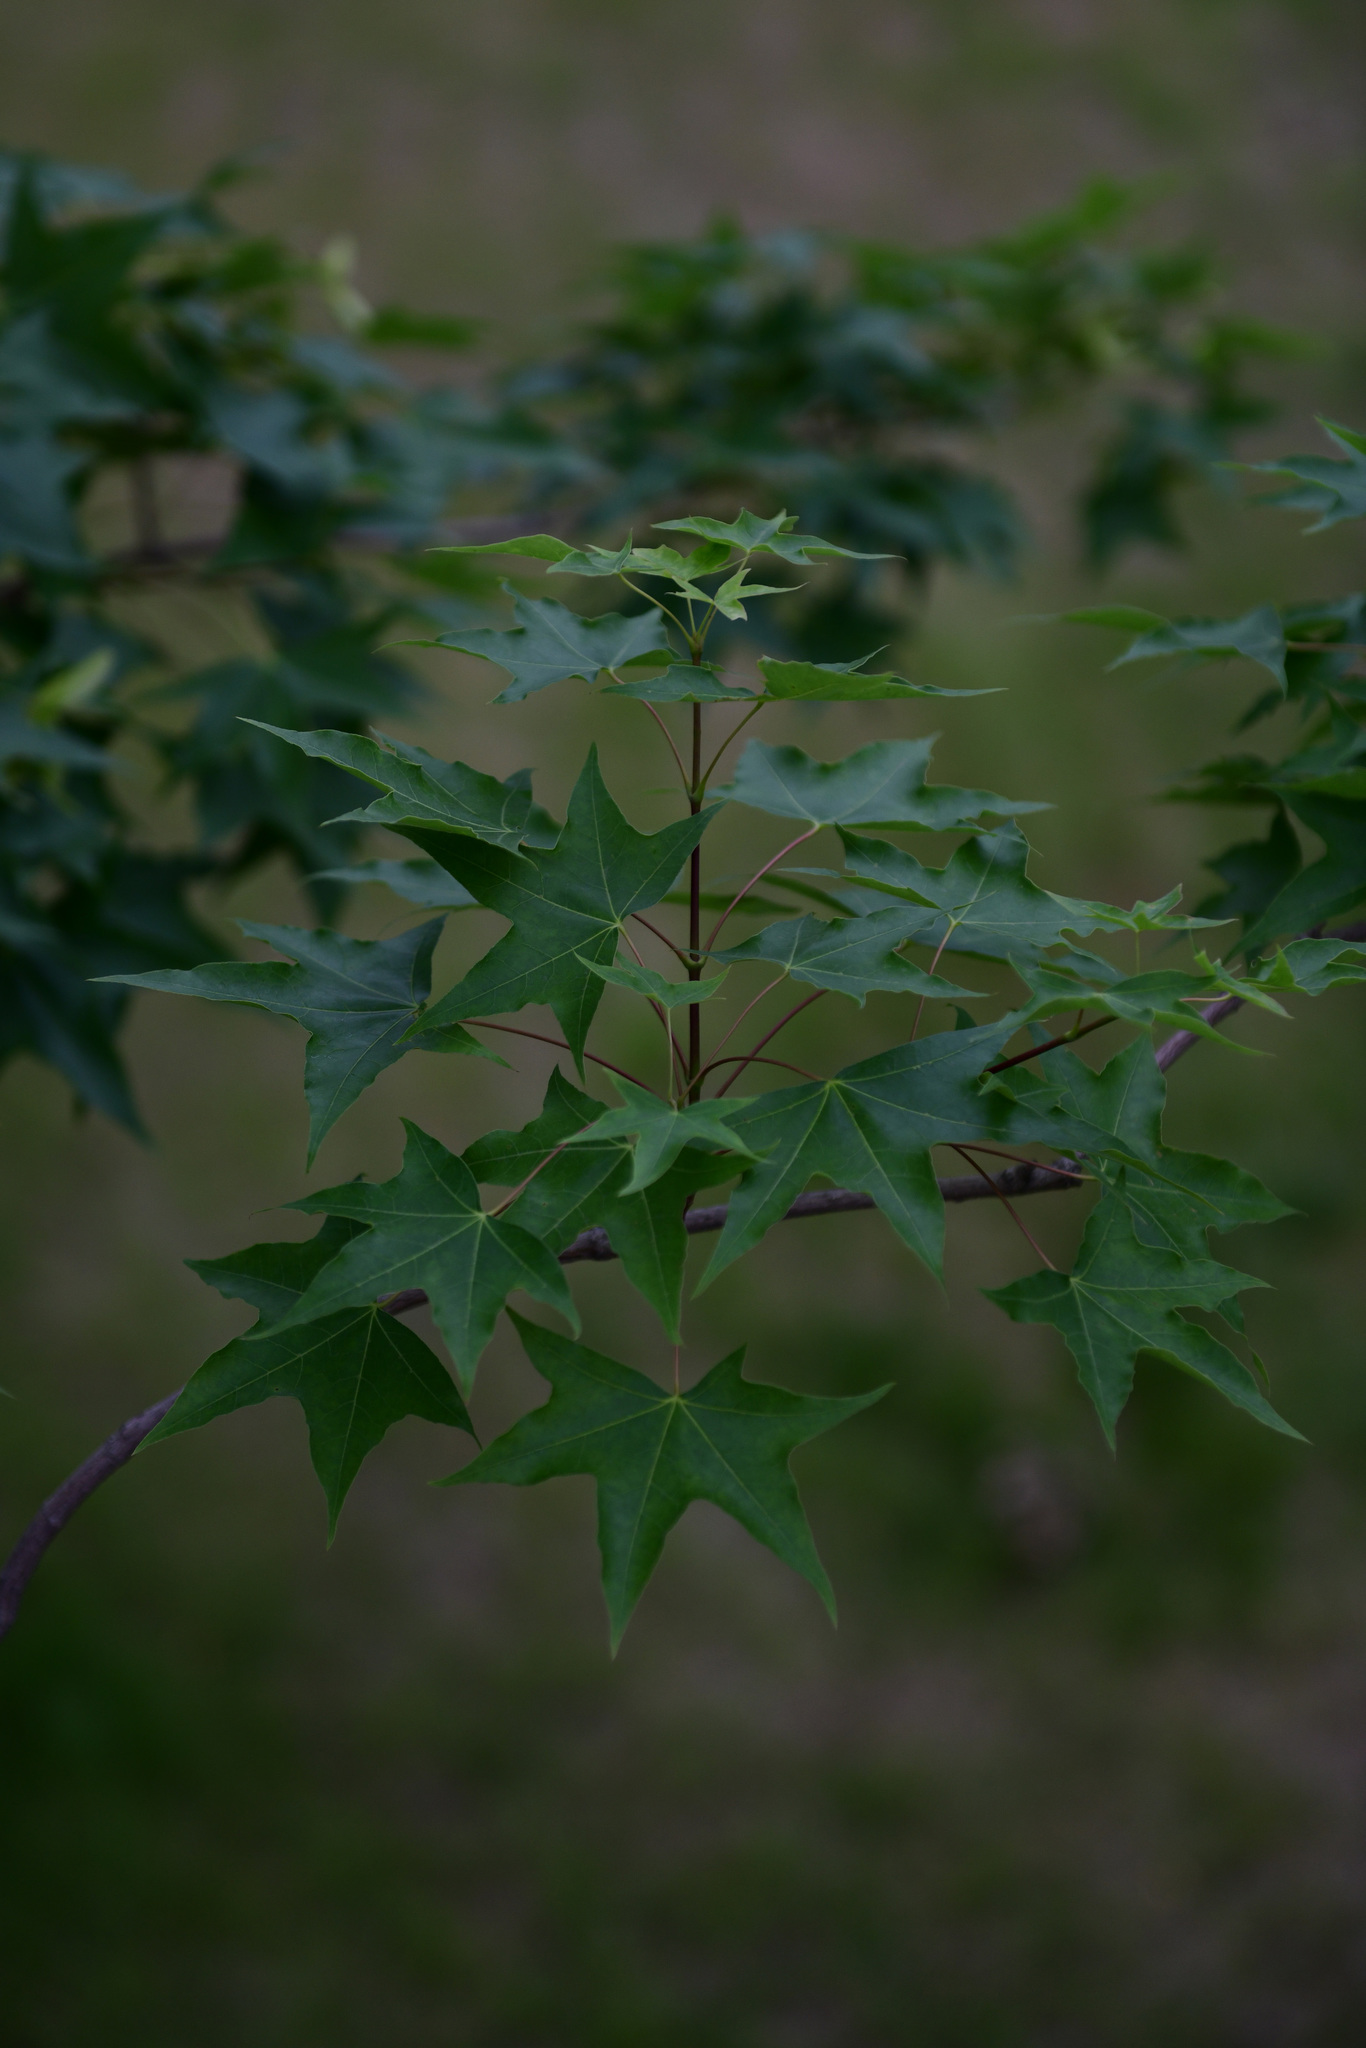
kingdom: Plantae
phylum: Tracheophyta
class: Magnoliopsida
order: Sapindales
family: Sapindaceae
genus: Acer
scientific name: Acer truncatum
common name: Shantung maple
